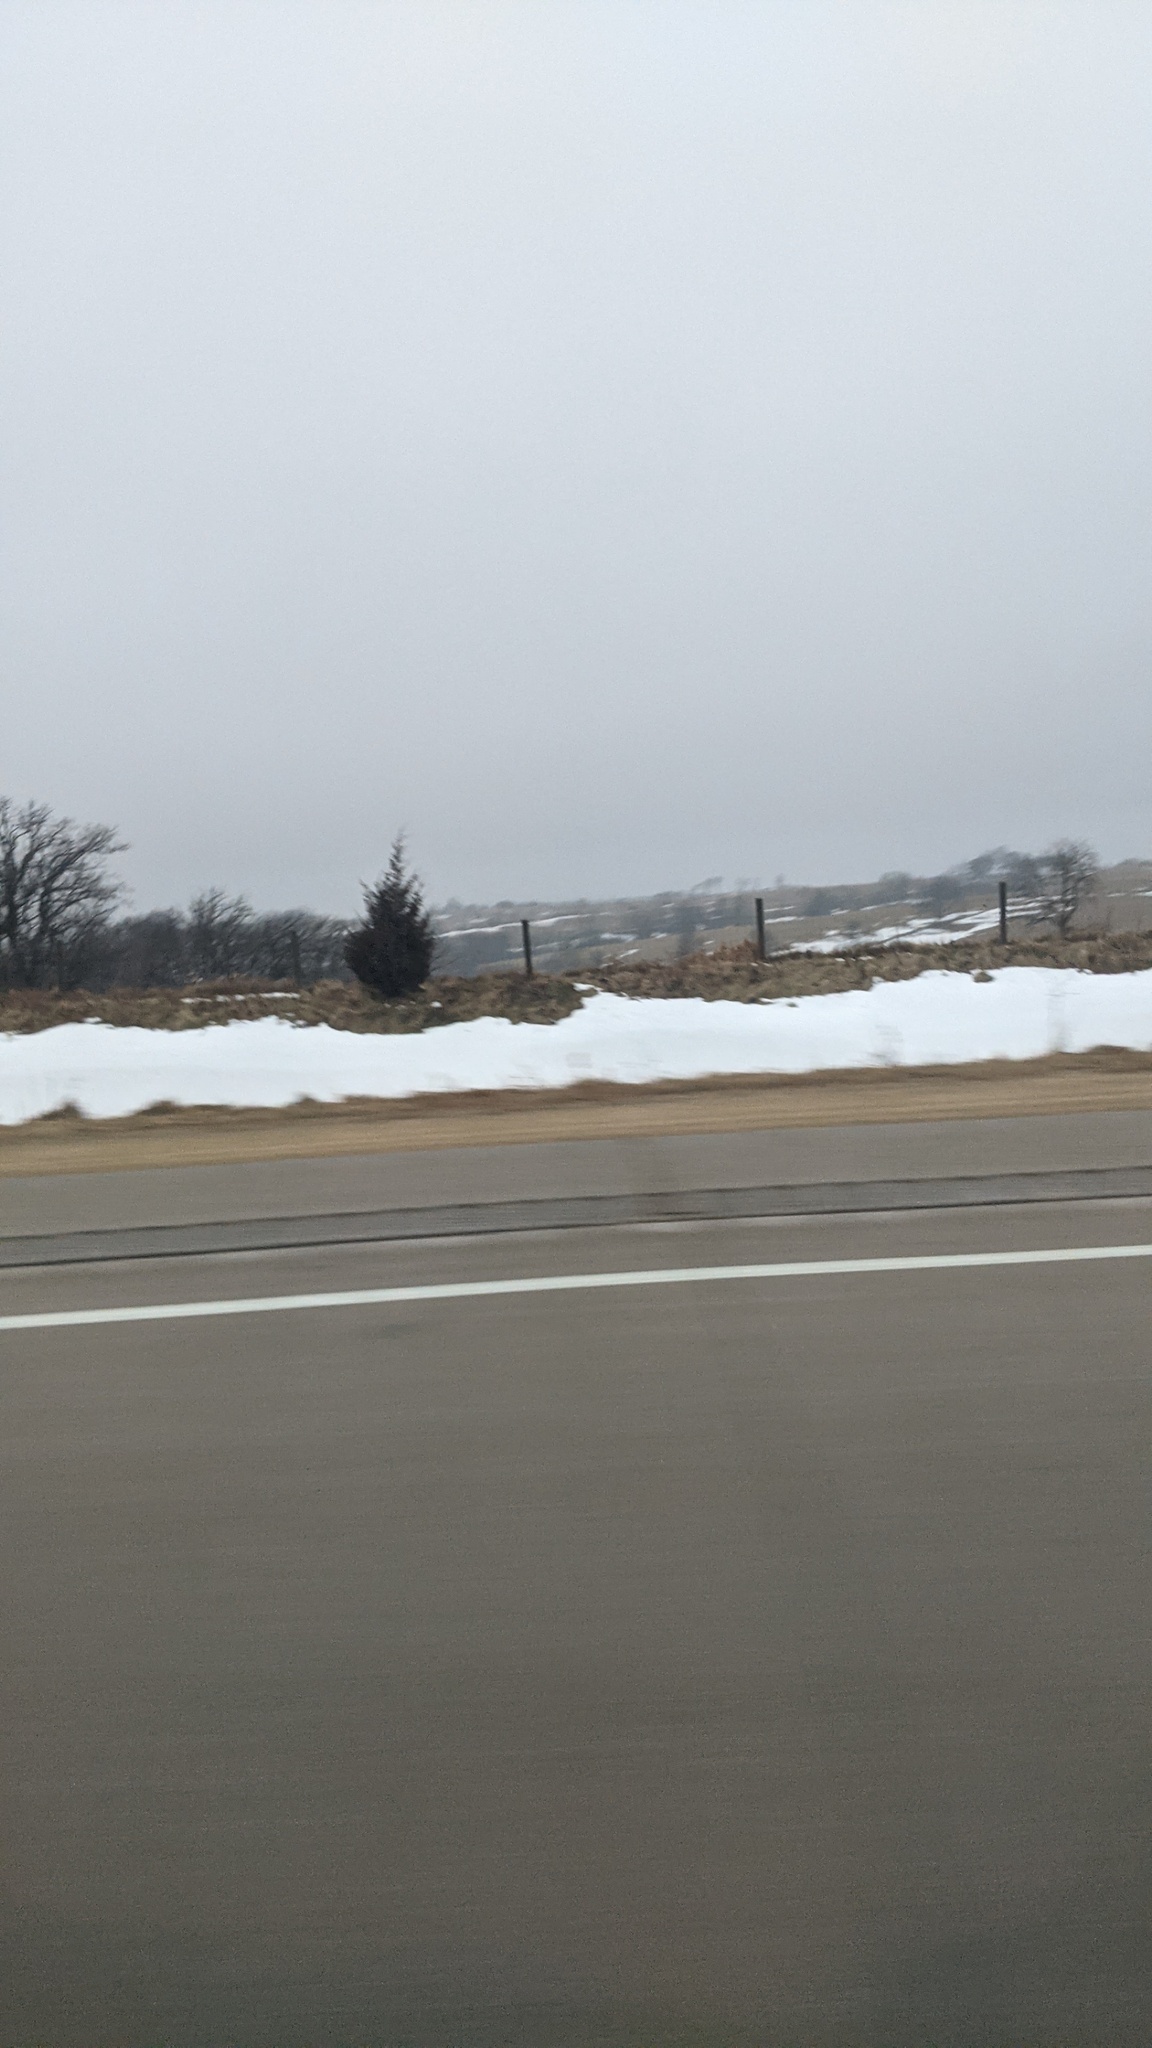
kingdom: Plantae
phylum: Tracheophyta
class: Pinopsida
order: Pinales
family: Cupressaceae
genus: Juniperus
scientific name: Juniperus virginiana
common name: Red juniper
